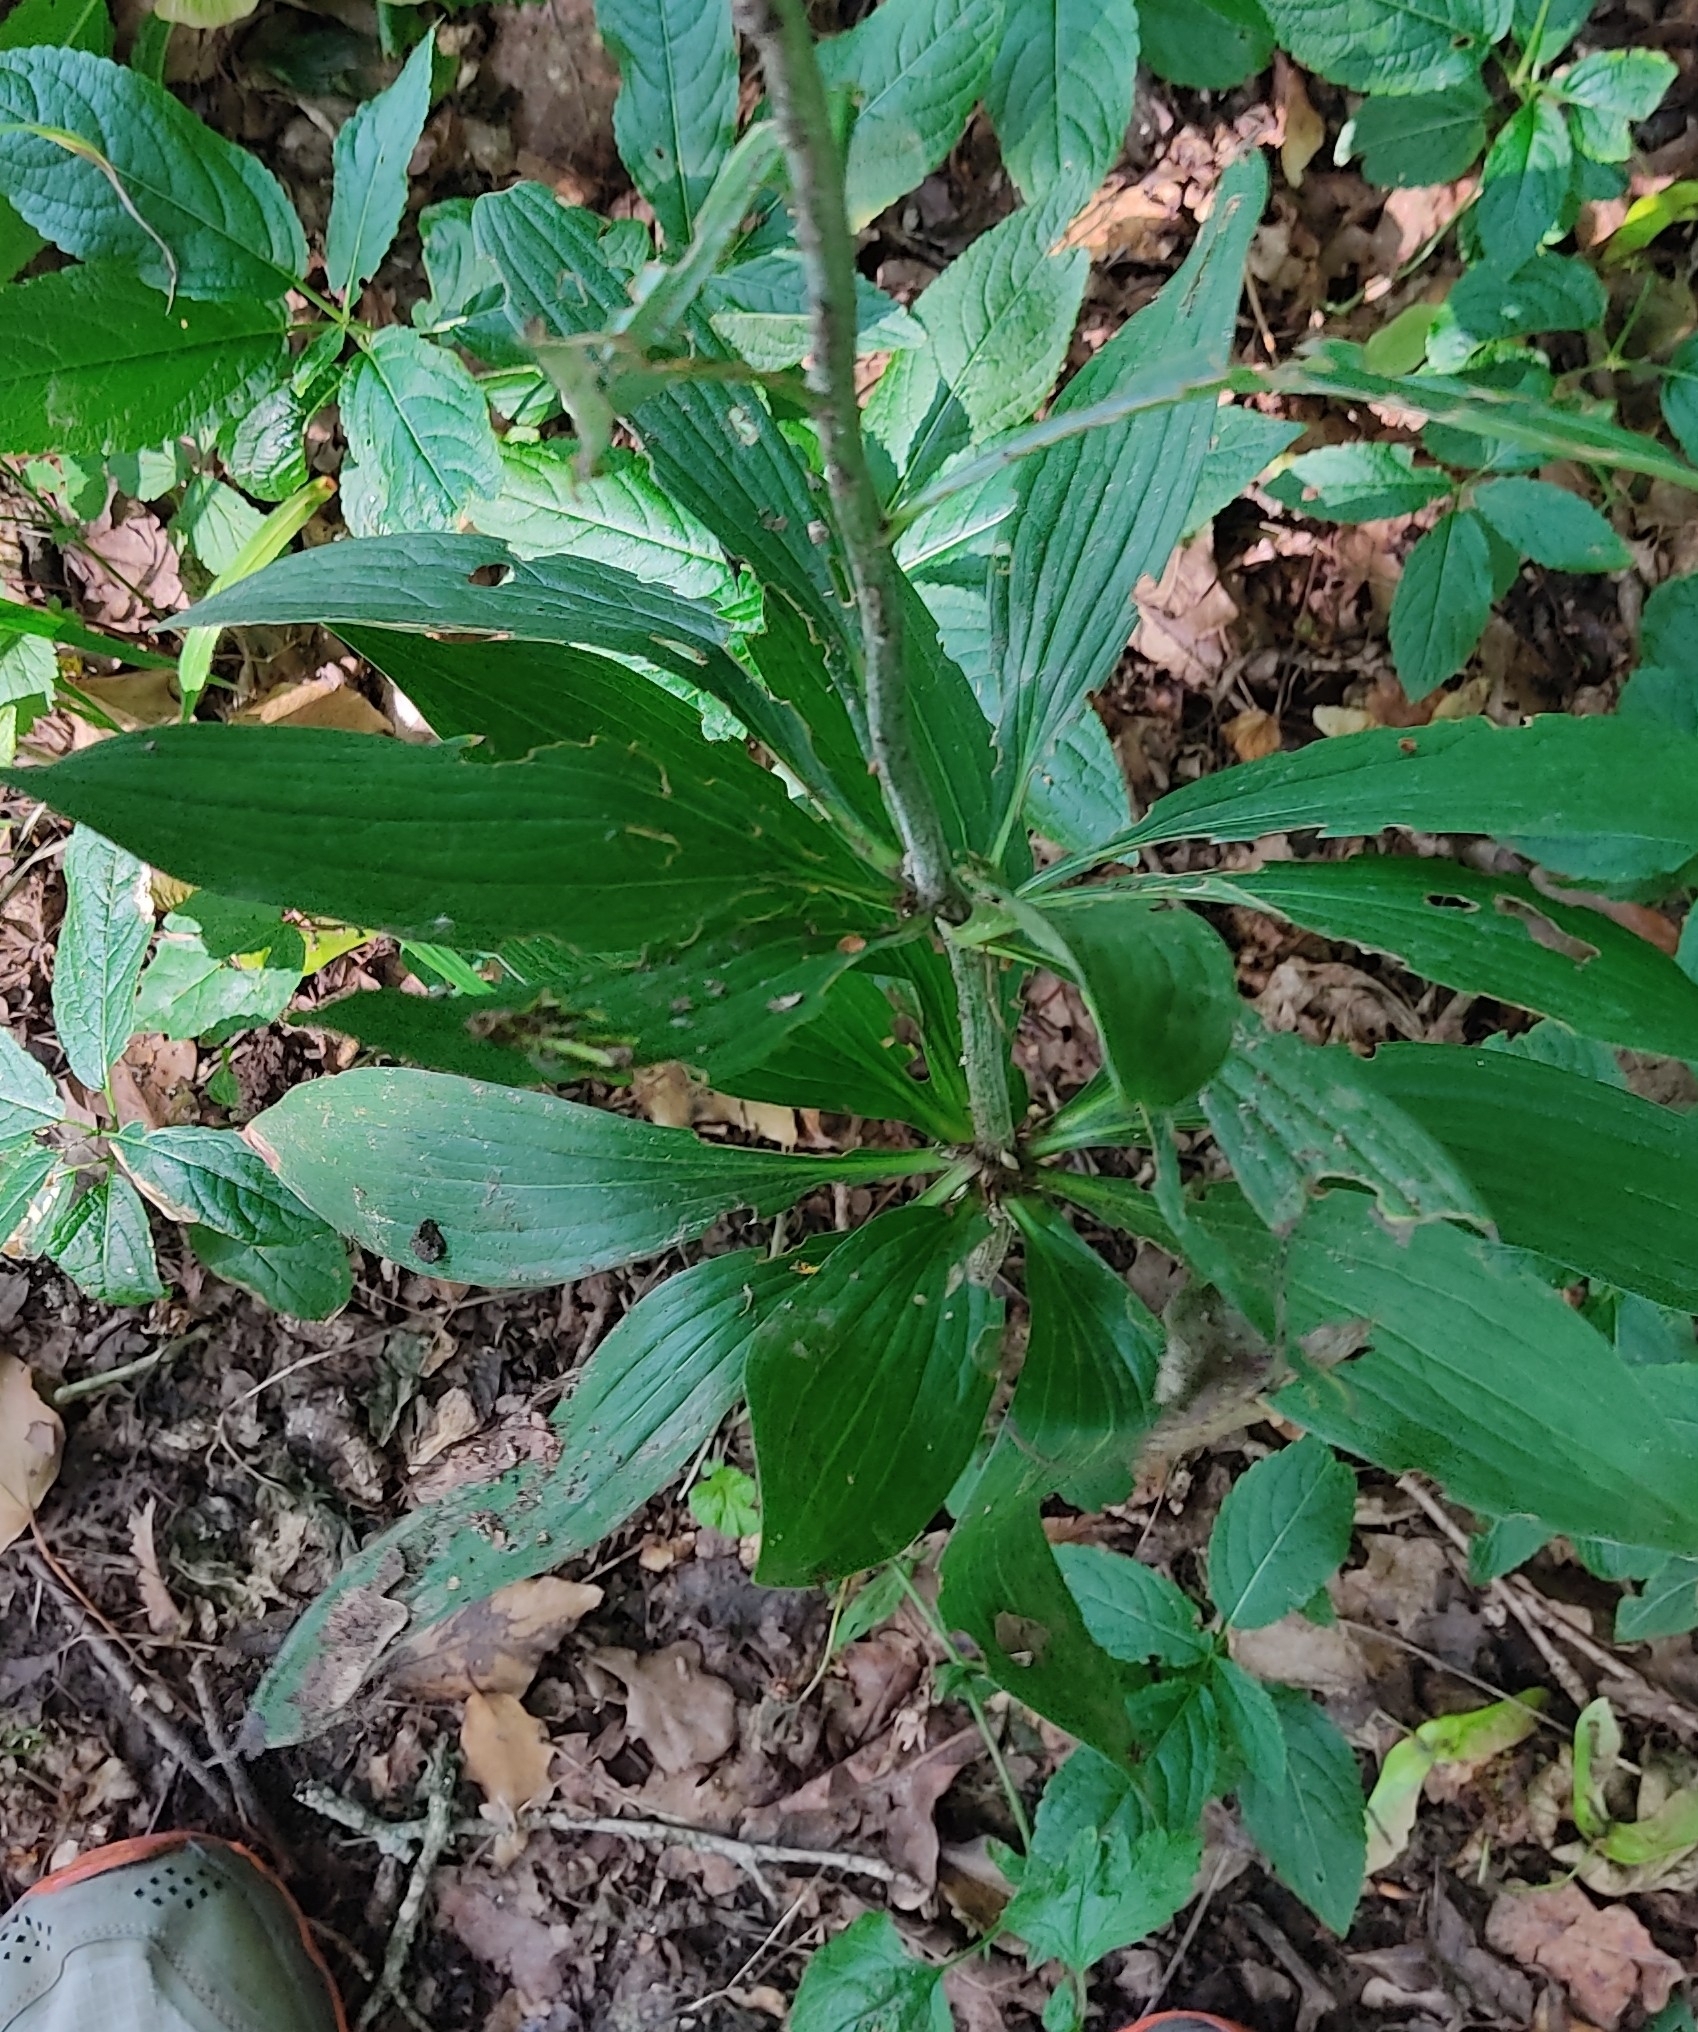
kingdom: Plantae
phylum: Tracheophyta
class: Liliopsida
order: Liliales
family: Liliaceae
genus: Lilium
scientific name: Lilium martagon
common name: Martagon lily
